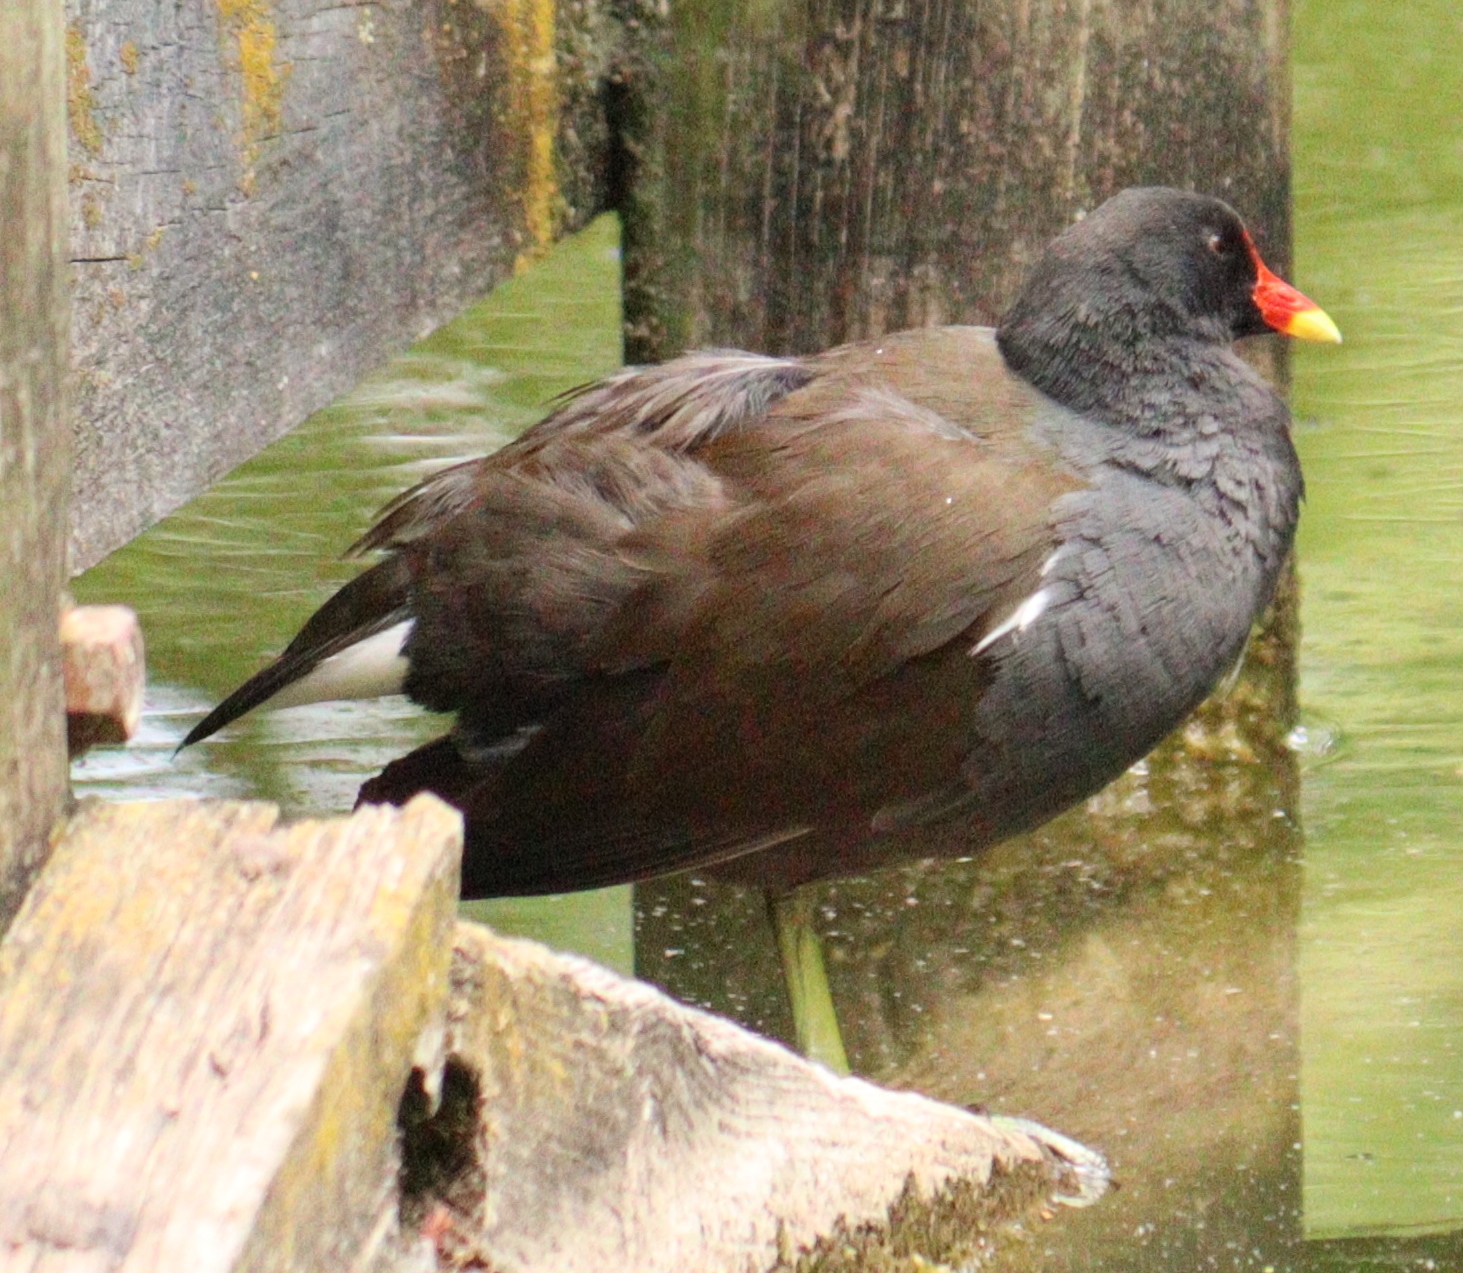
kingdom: Animalia
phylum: Chordata
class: Aves
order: Gruiformes
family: Rallidae
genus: Gallinula
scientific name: Gallinula chloropus
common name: Common moorhen
